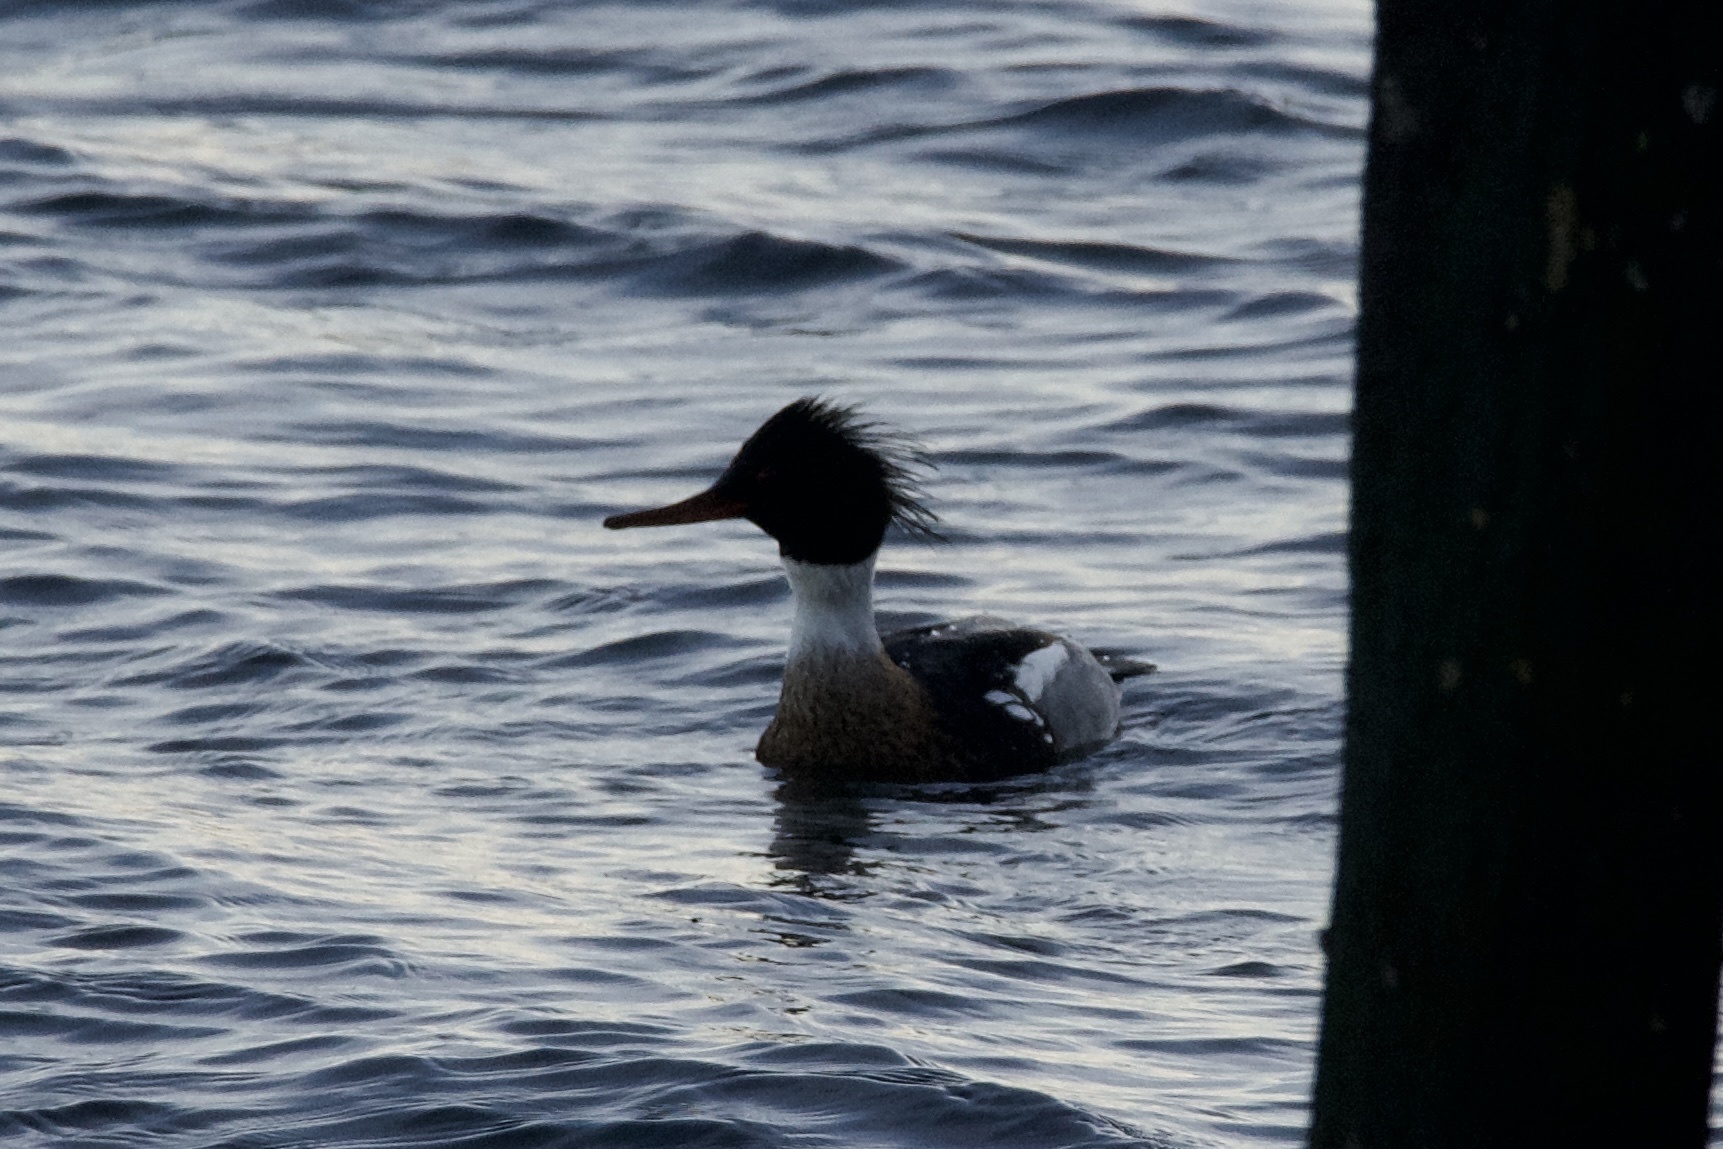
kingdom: Animalia
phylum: Chordata
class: Aves
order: Anseriformes
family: Anatidae
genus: Mergus
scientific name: Mergus serrator
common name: Red-breasted merganser
